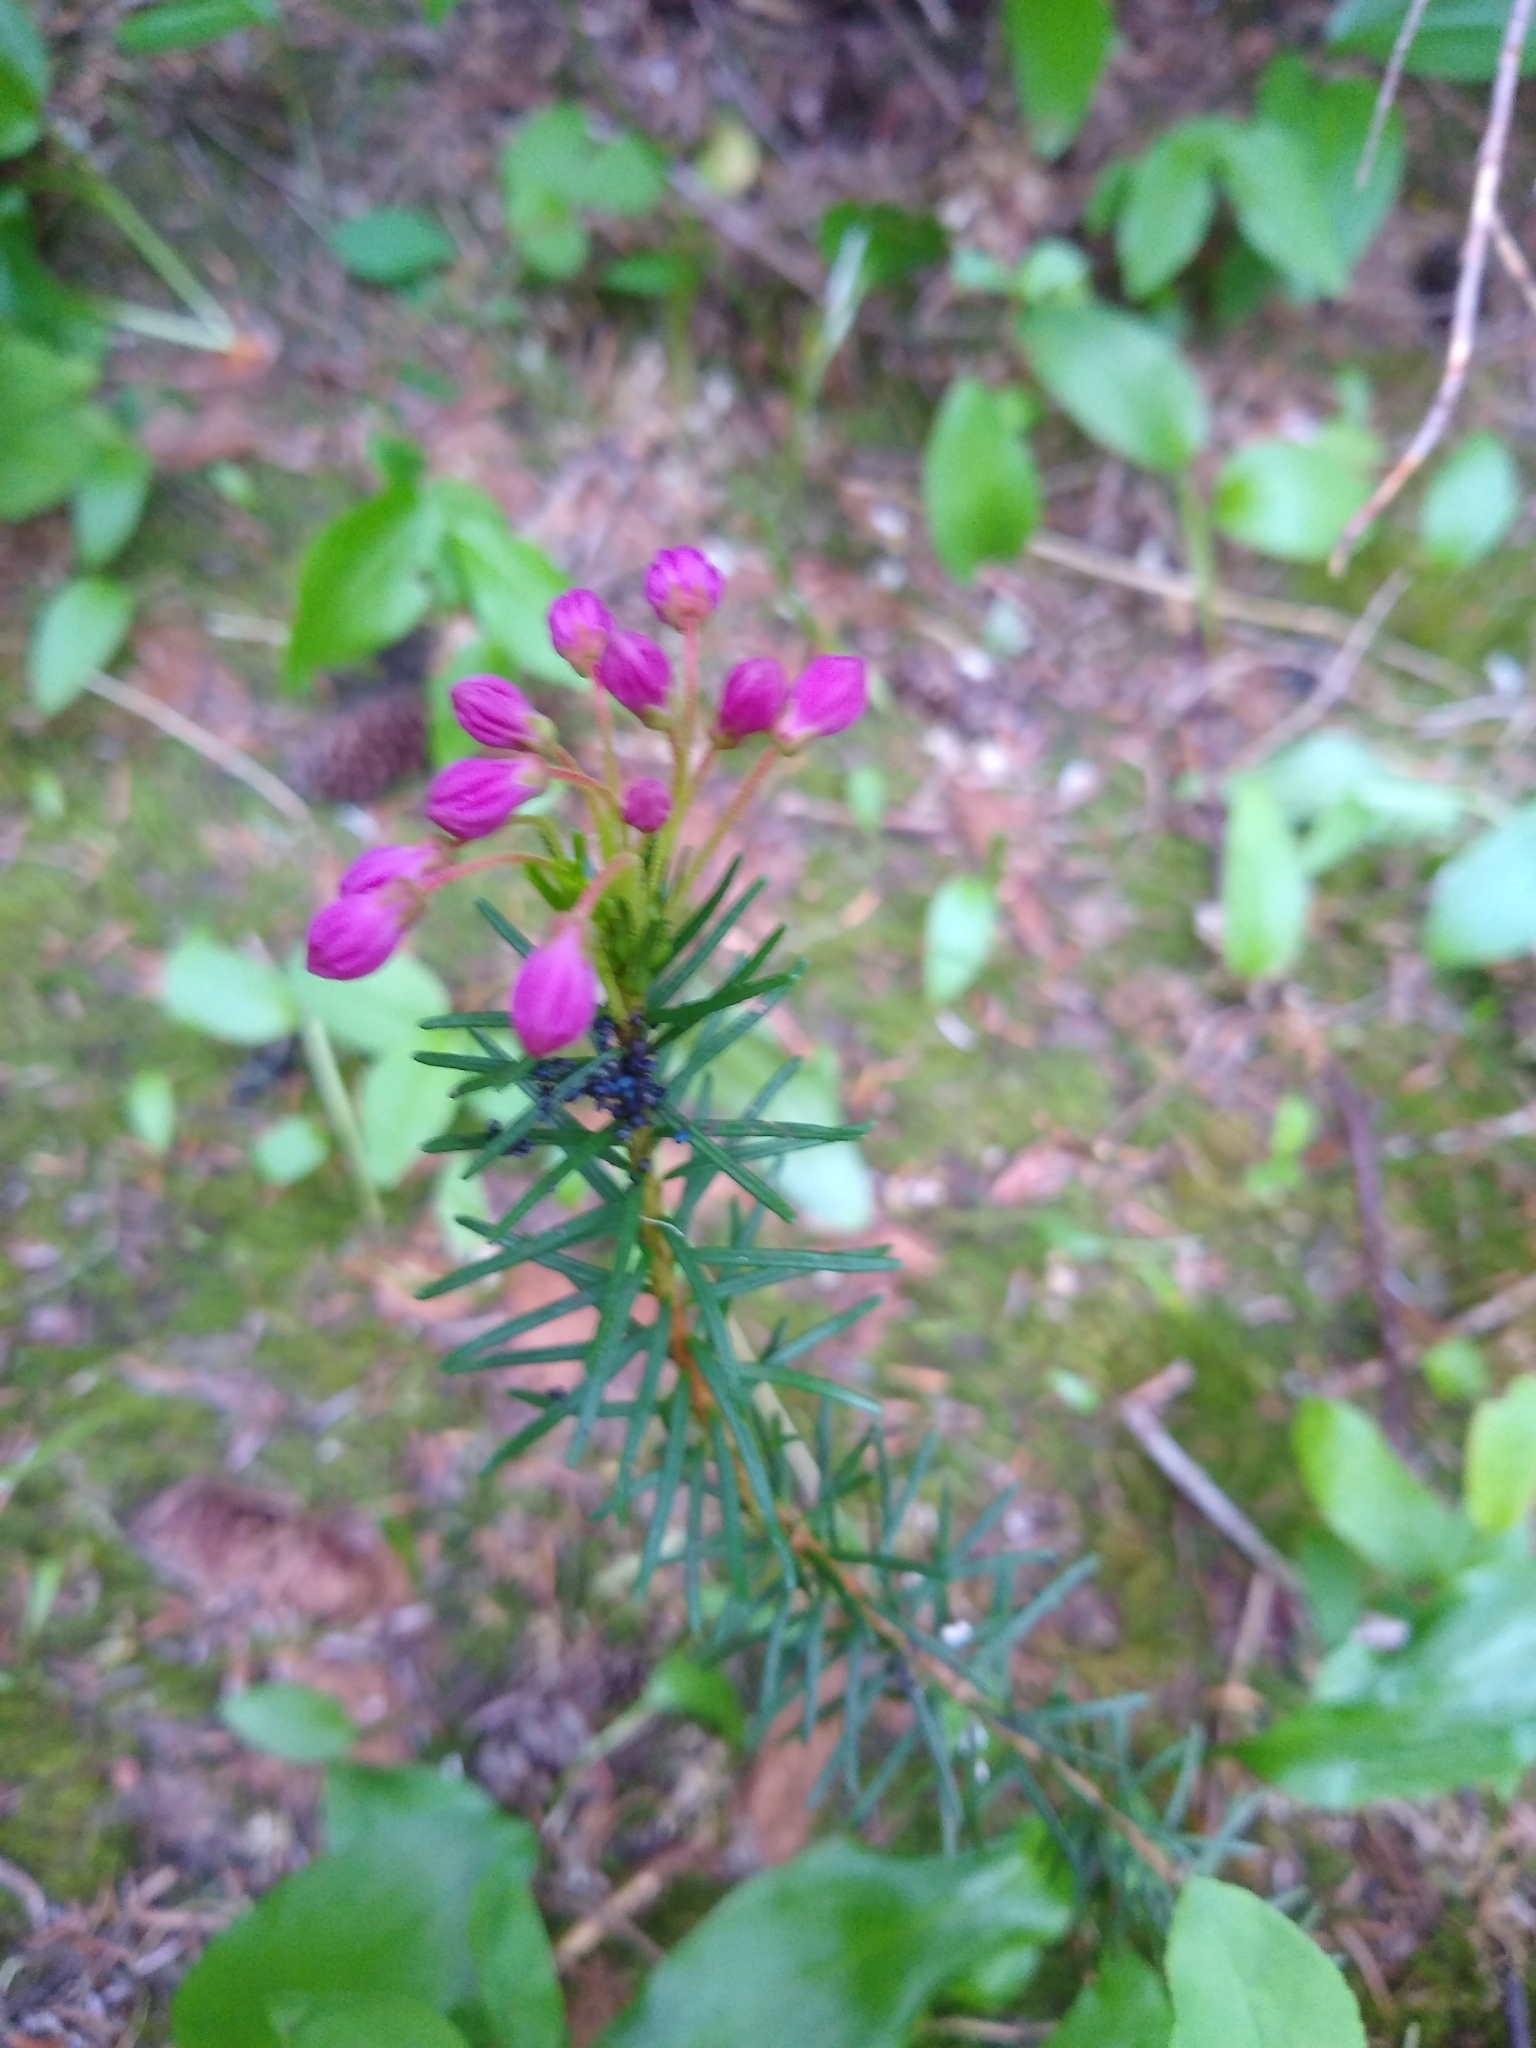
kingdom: Plantae
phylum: Tracheophyta
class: Magnoliopsida
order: Ericales
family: Ericaceae
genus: Phyllodoce
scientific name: Phyllodoce empetriformis
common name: Pink mountain heather
